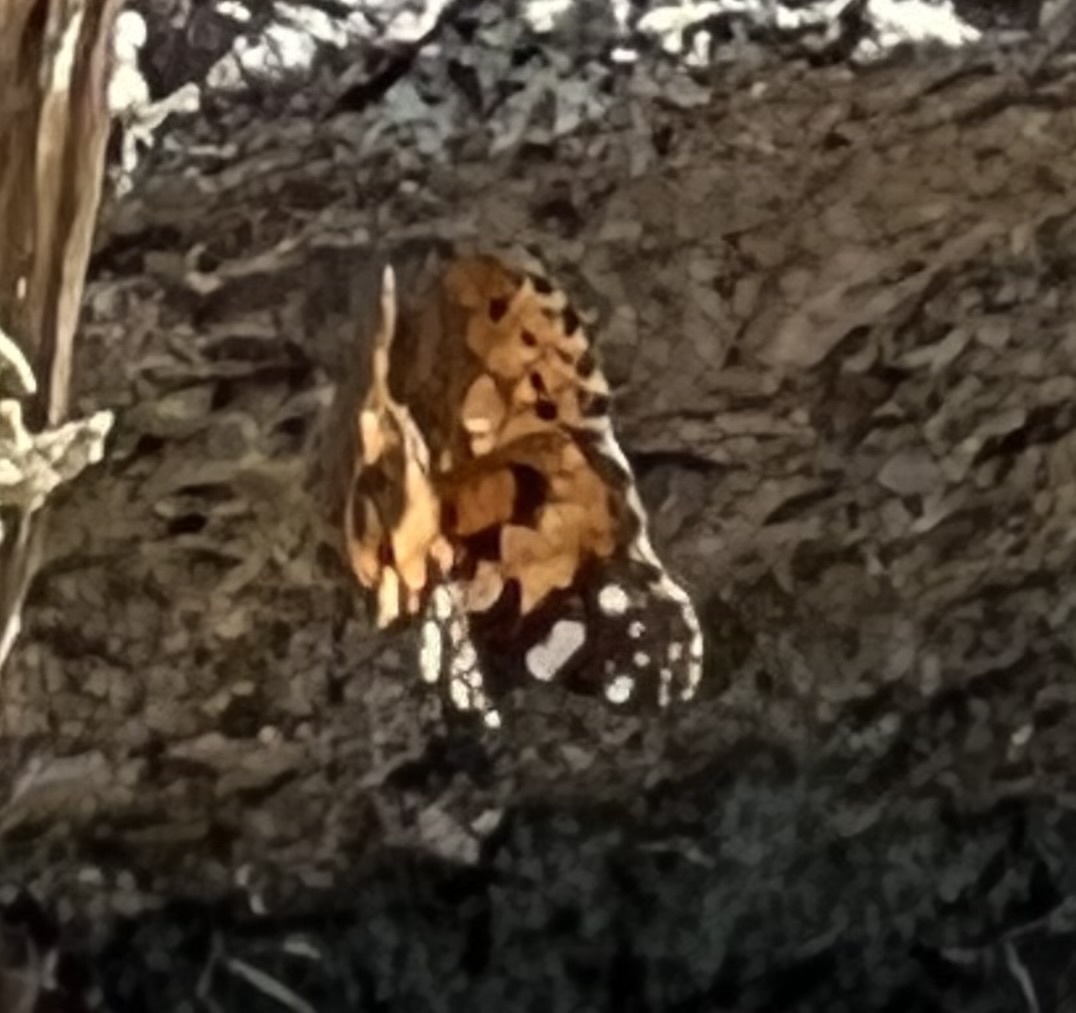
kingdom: Animalia
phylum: Arthropoda
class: Insecta
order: Lepidoptera
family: Nymphalidae
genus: Vanessa
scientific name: Vanessa cardui
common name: Painted lady
